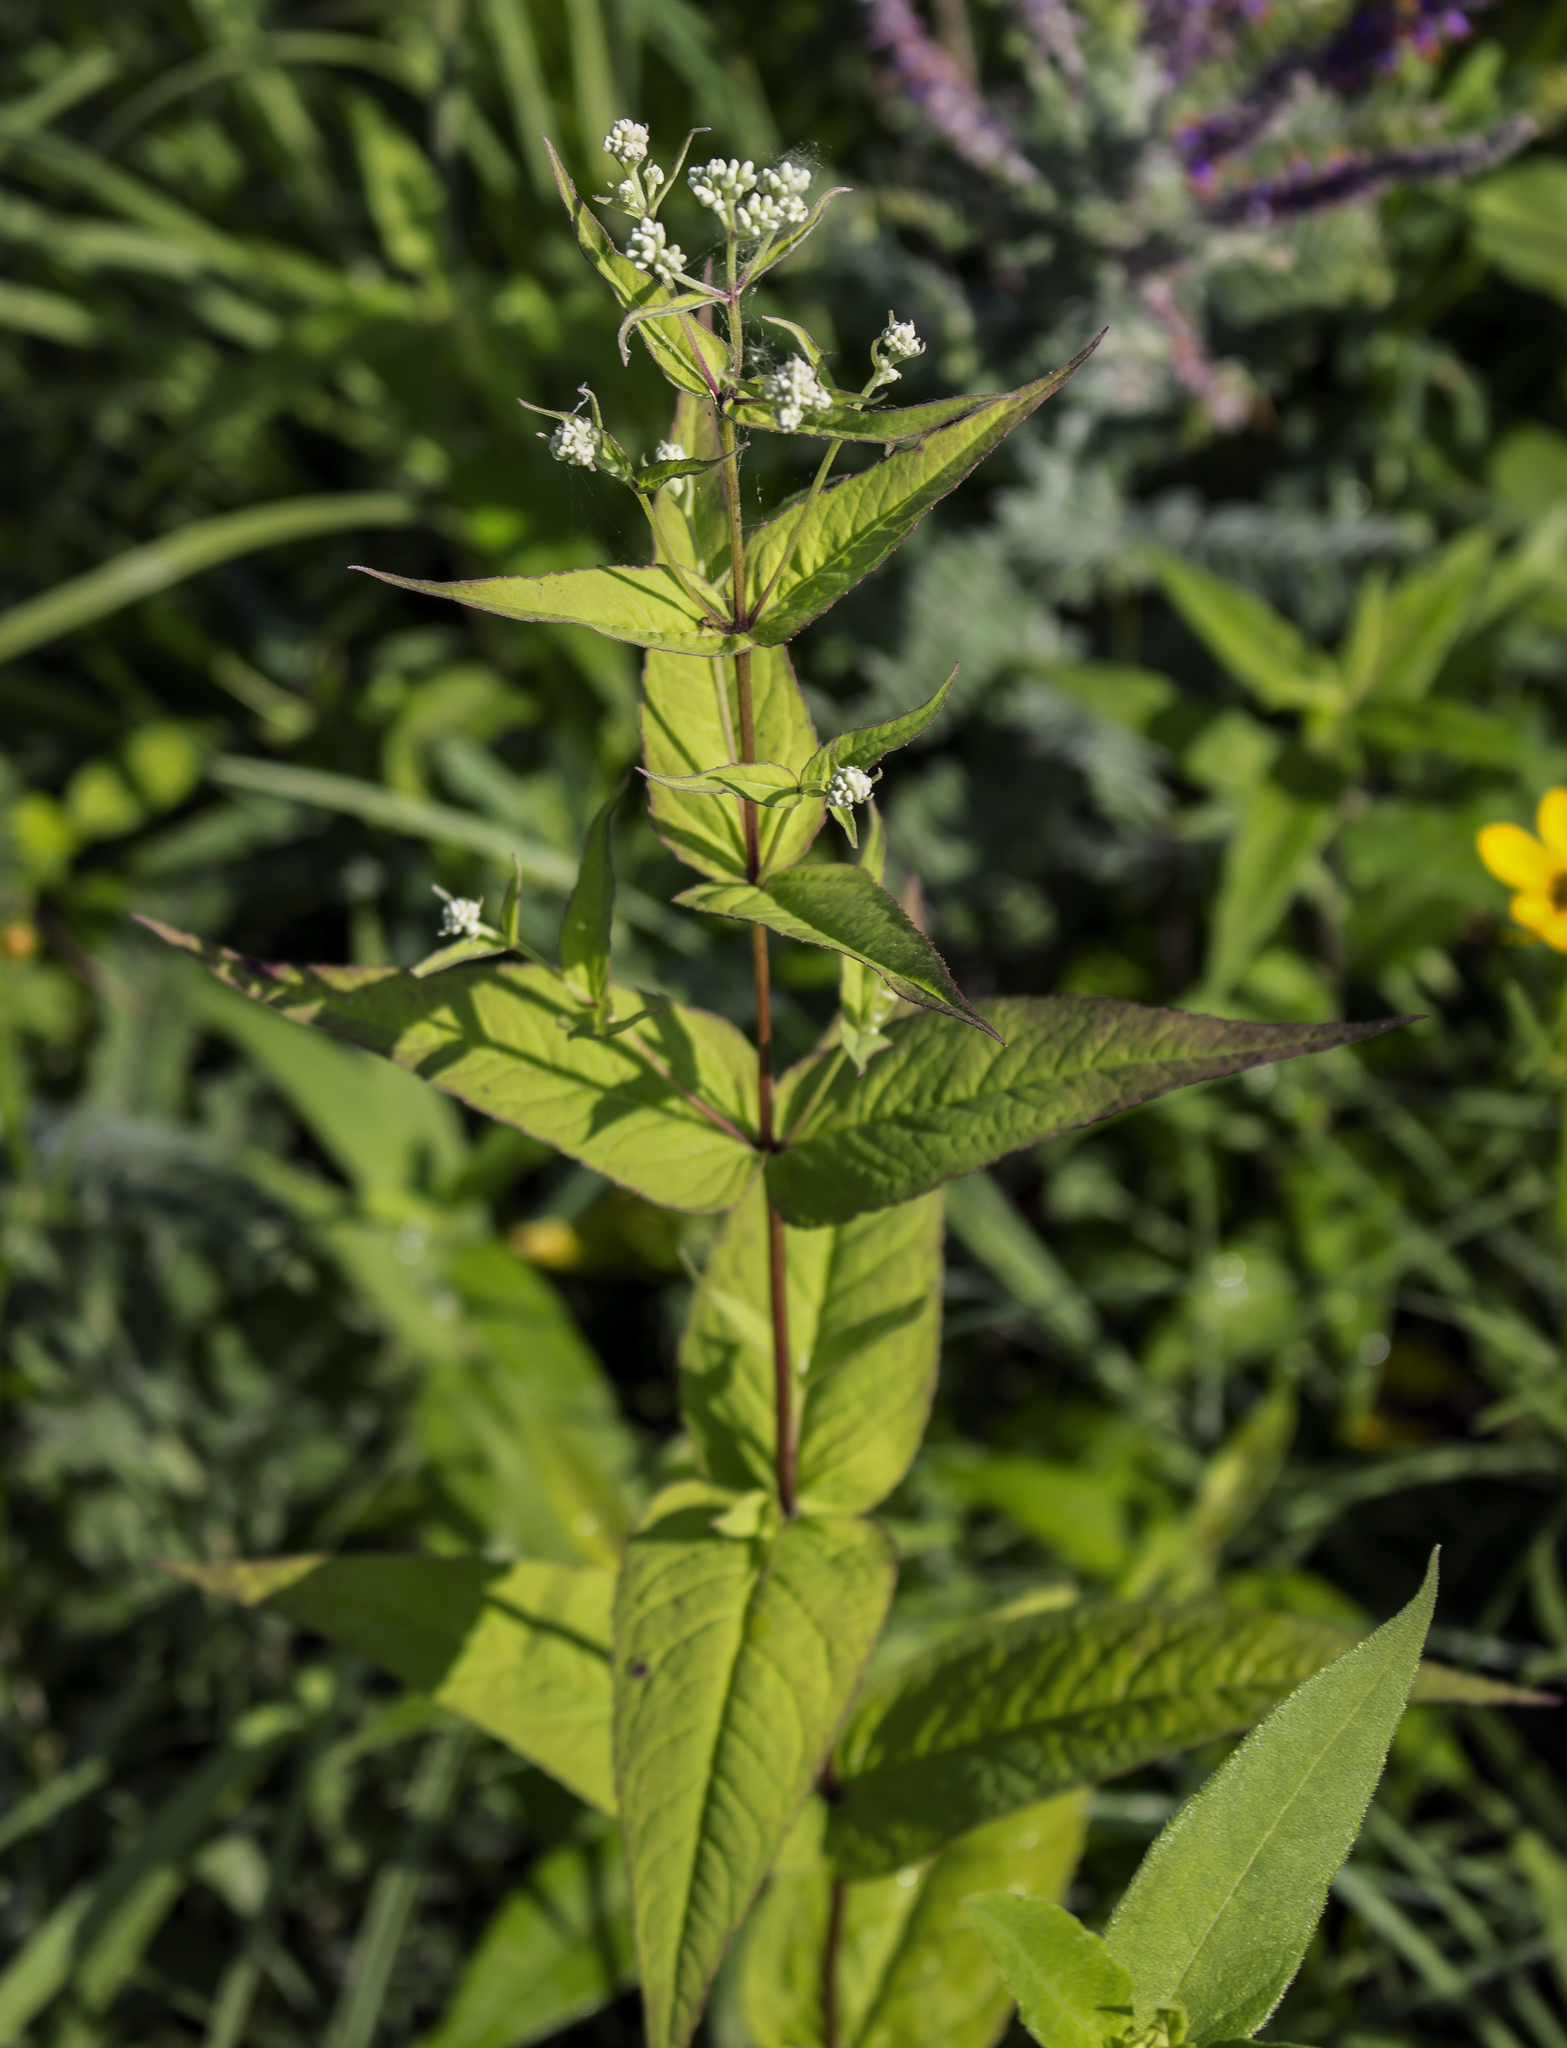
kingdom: Plantae
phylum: Tracheophyta
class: Magnoliopsida
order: Asterales
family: Asteraceae
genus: Eupatorium
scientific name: Eupatorium sessilifolium
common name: Upland boneset
